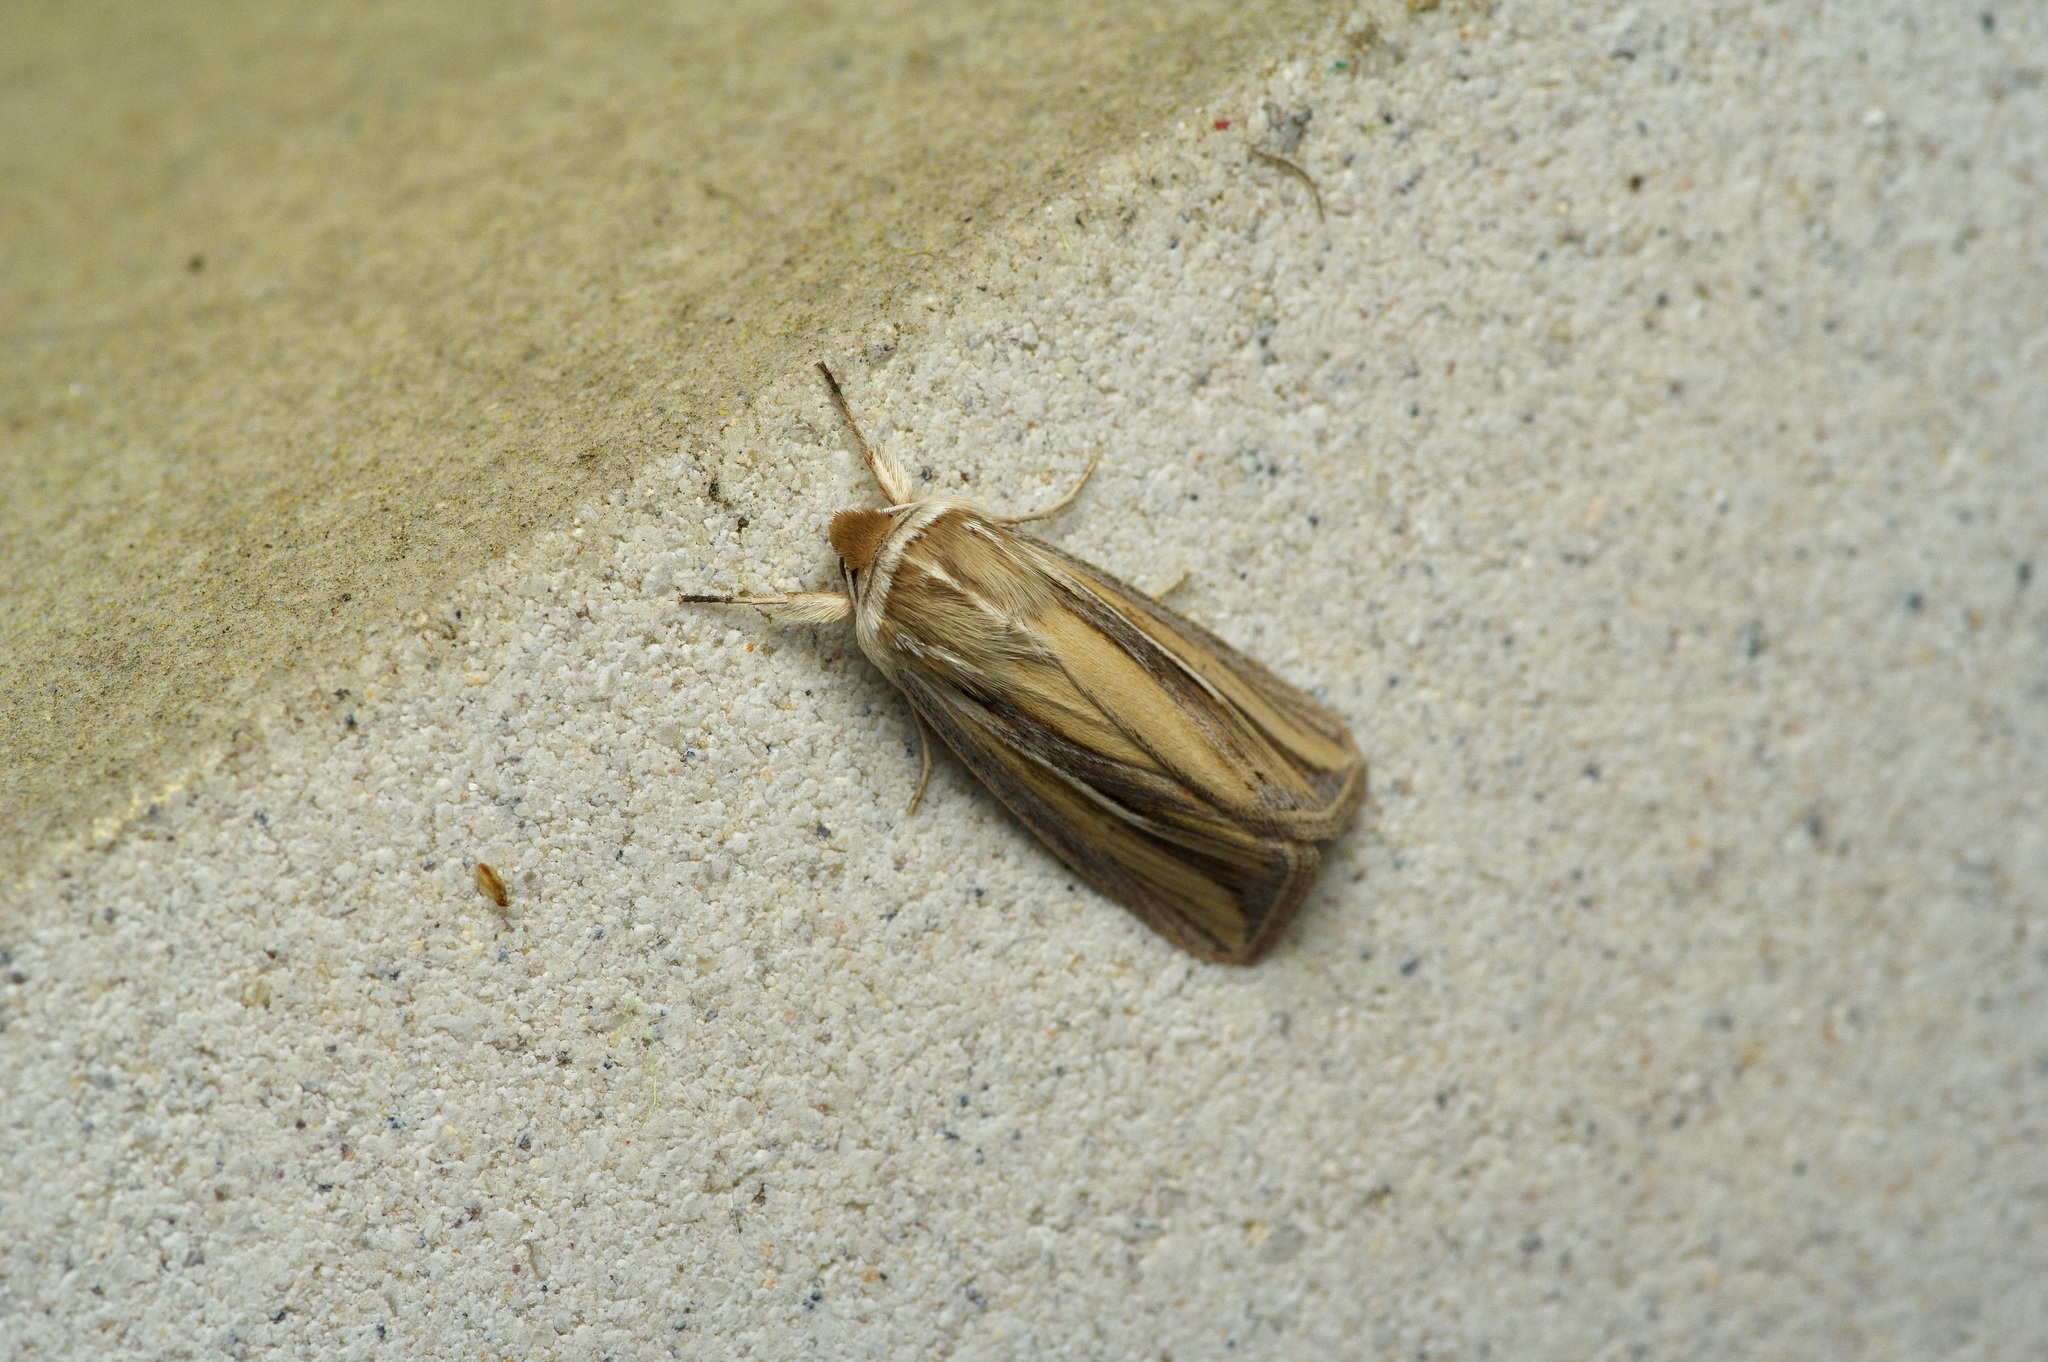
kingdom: Animalia
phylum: Arthropoda
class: Insecta
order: Lepidoptera
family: Noctuidae
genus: Dargida
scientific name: Dargida diffusa
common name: Wheat head armyworm
